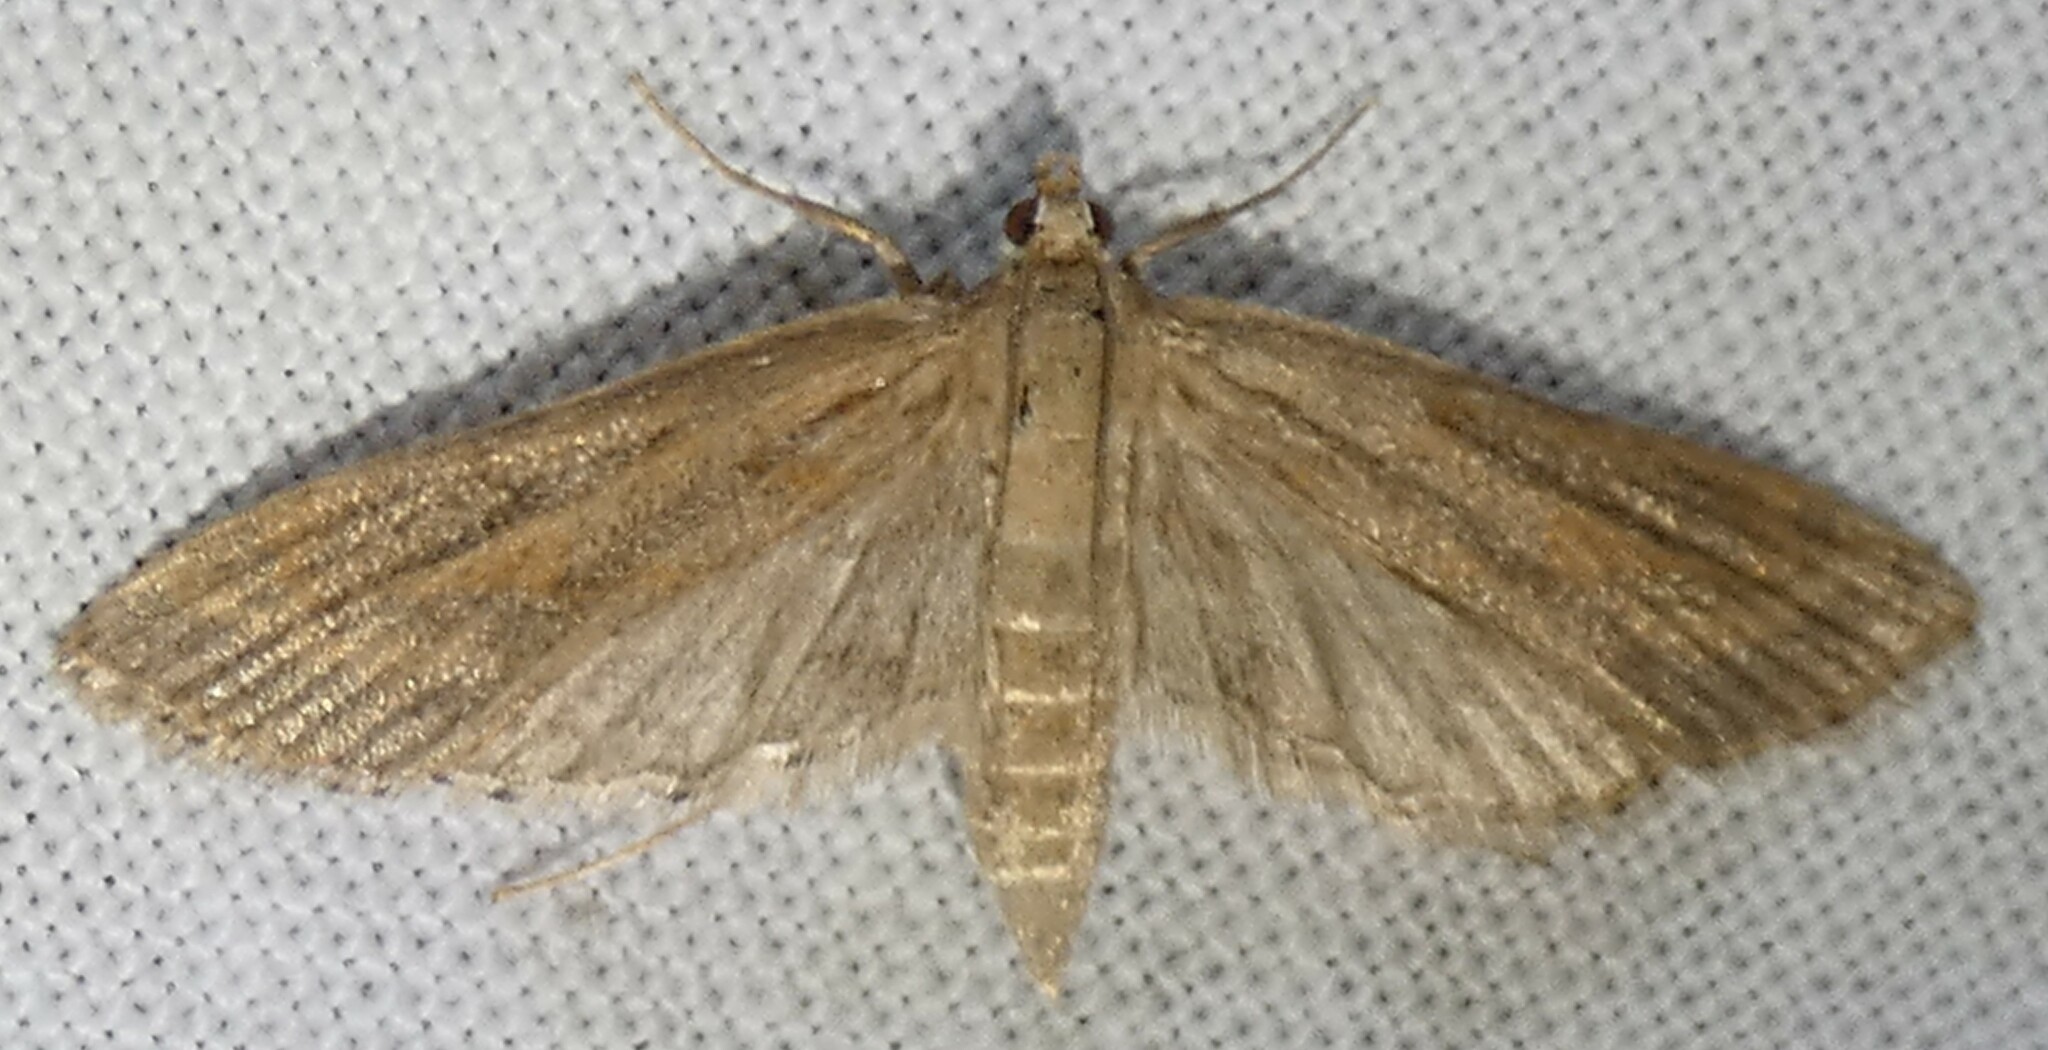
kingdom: Animalia
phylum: Arthropoda
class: Insecta
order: Lepidoptera
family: Crambidae
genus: Parapoynx
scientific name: Parapoynx allionealis
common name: Bladderwort casemaker
